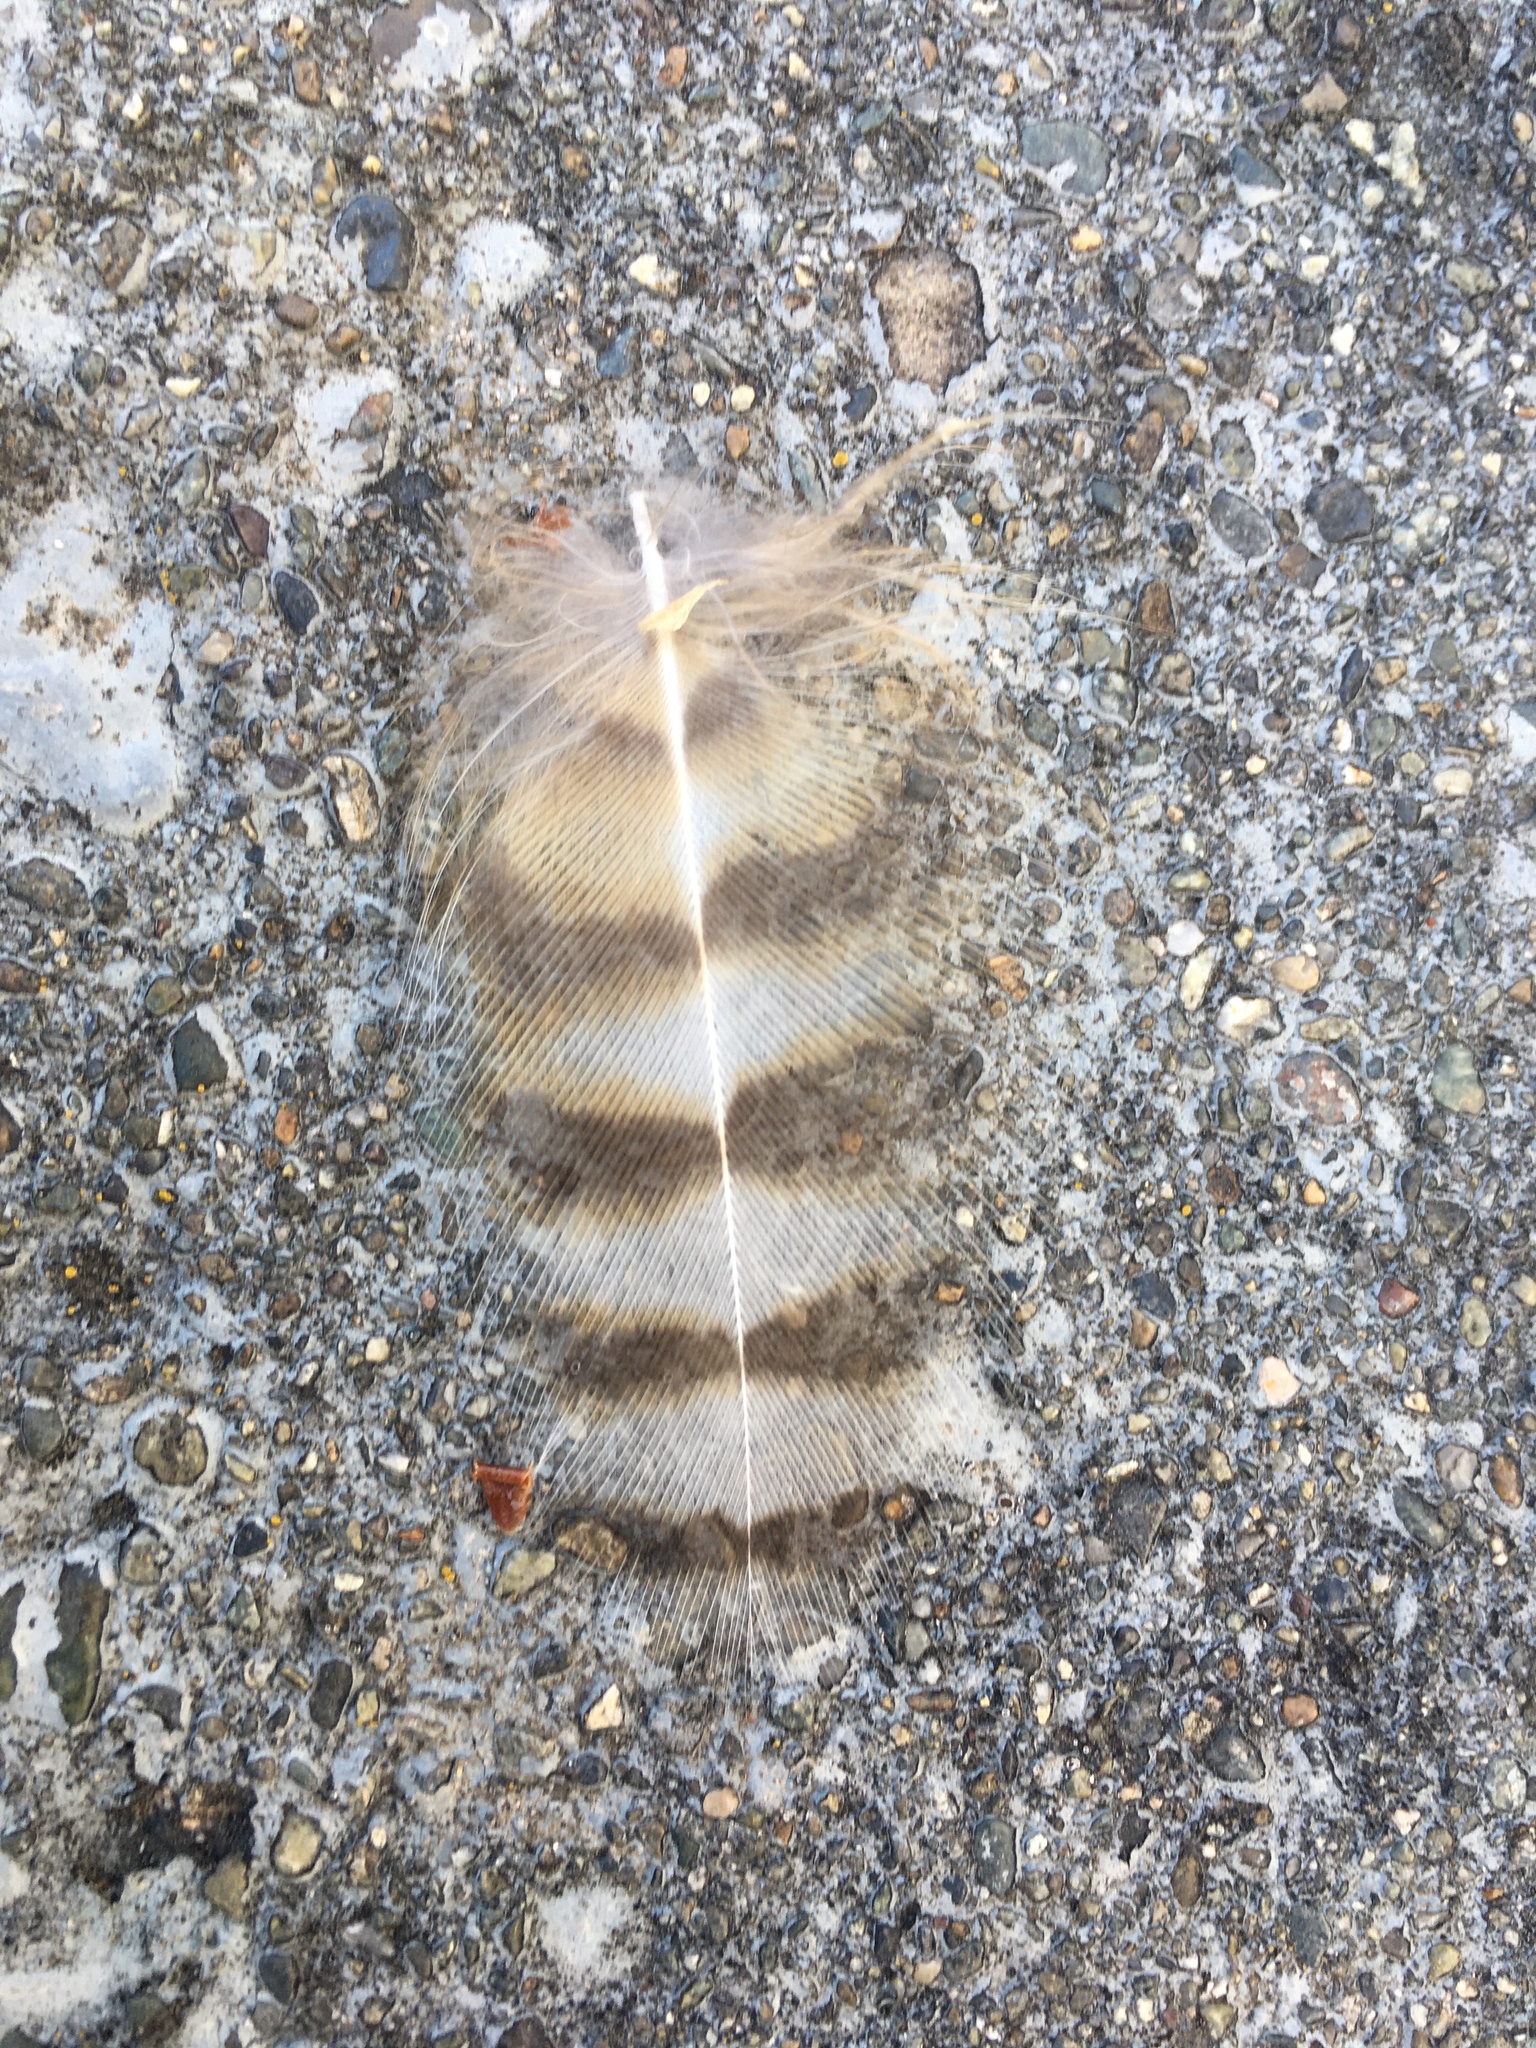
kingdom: Animalia
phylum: Chordata
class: Aves
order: Strigiformes
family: Strigidae
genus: Bubo
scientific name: Bubo virginianus
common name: Great horned owl
